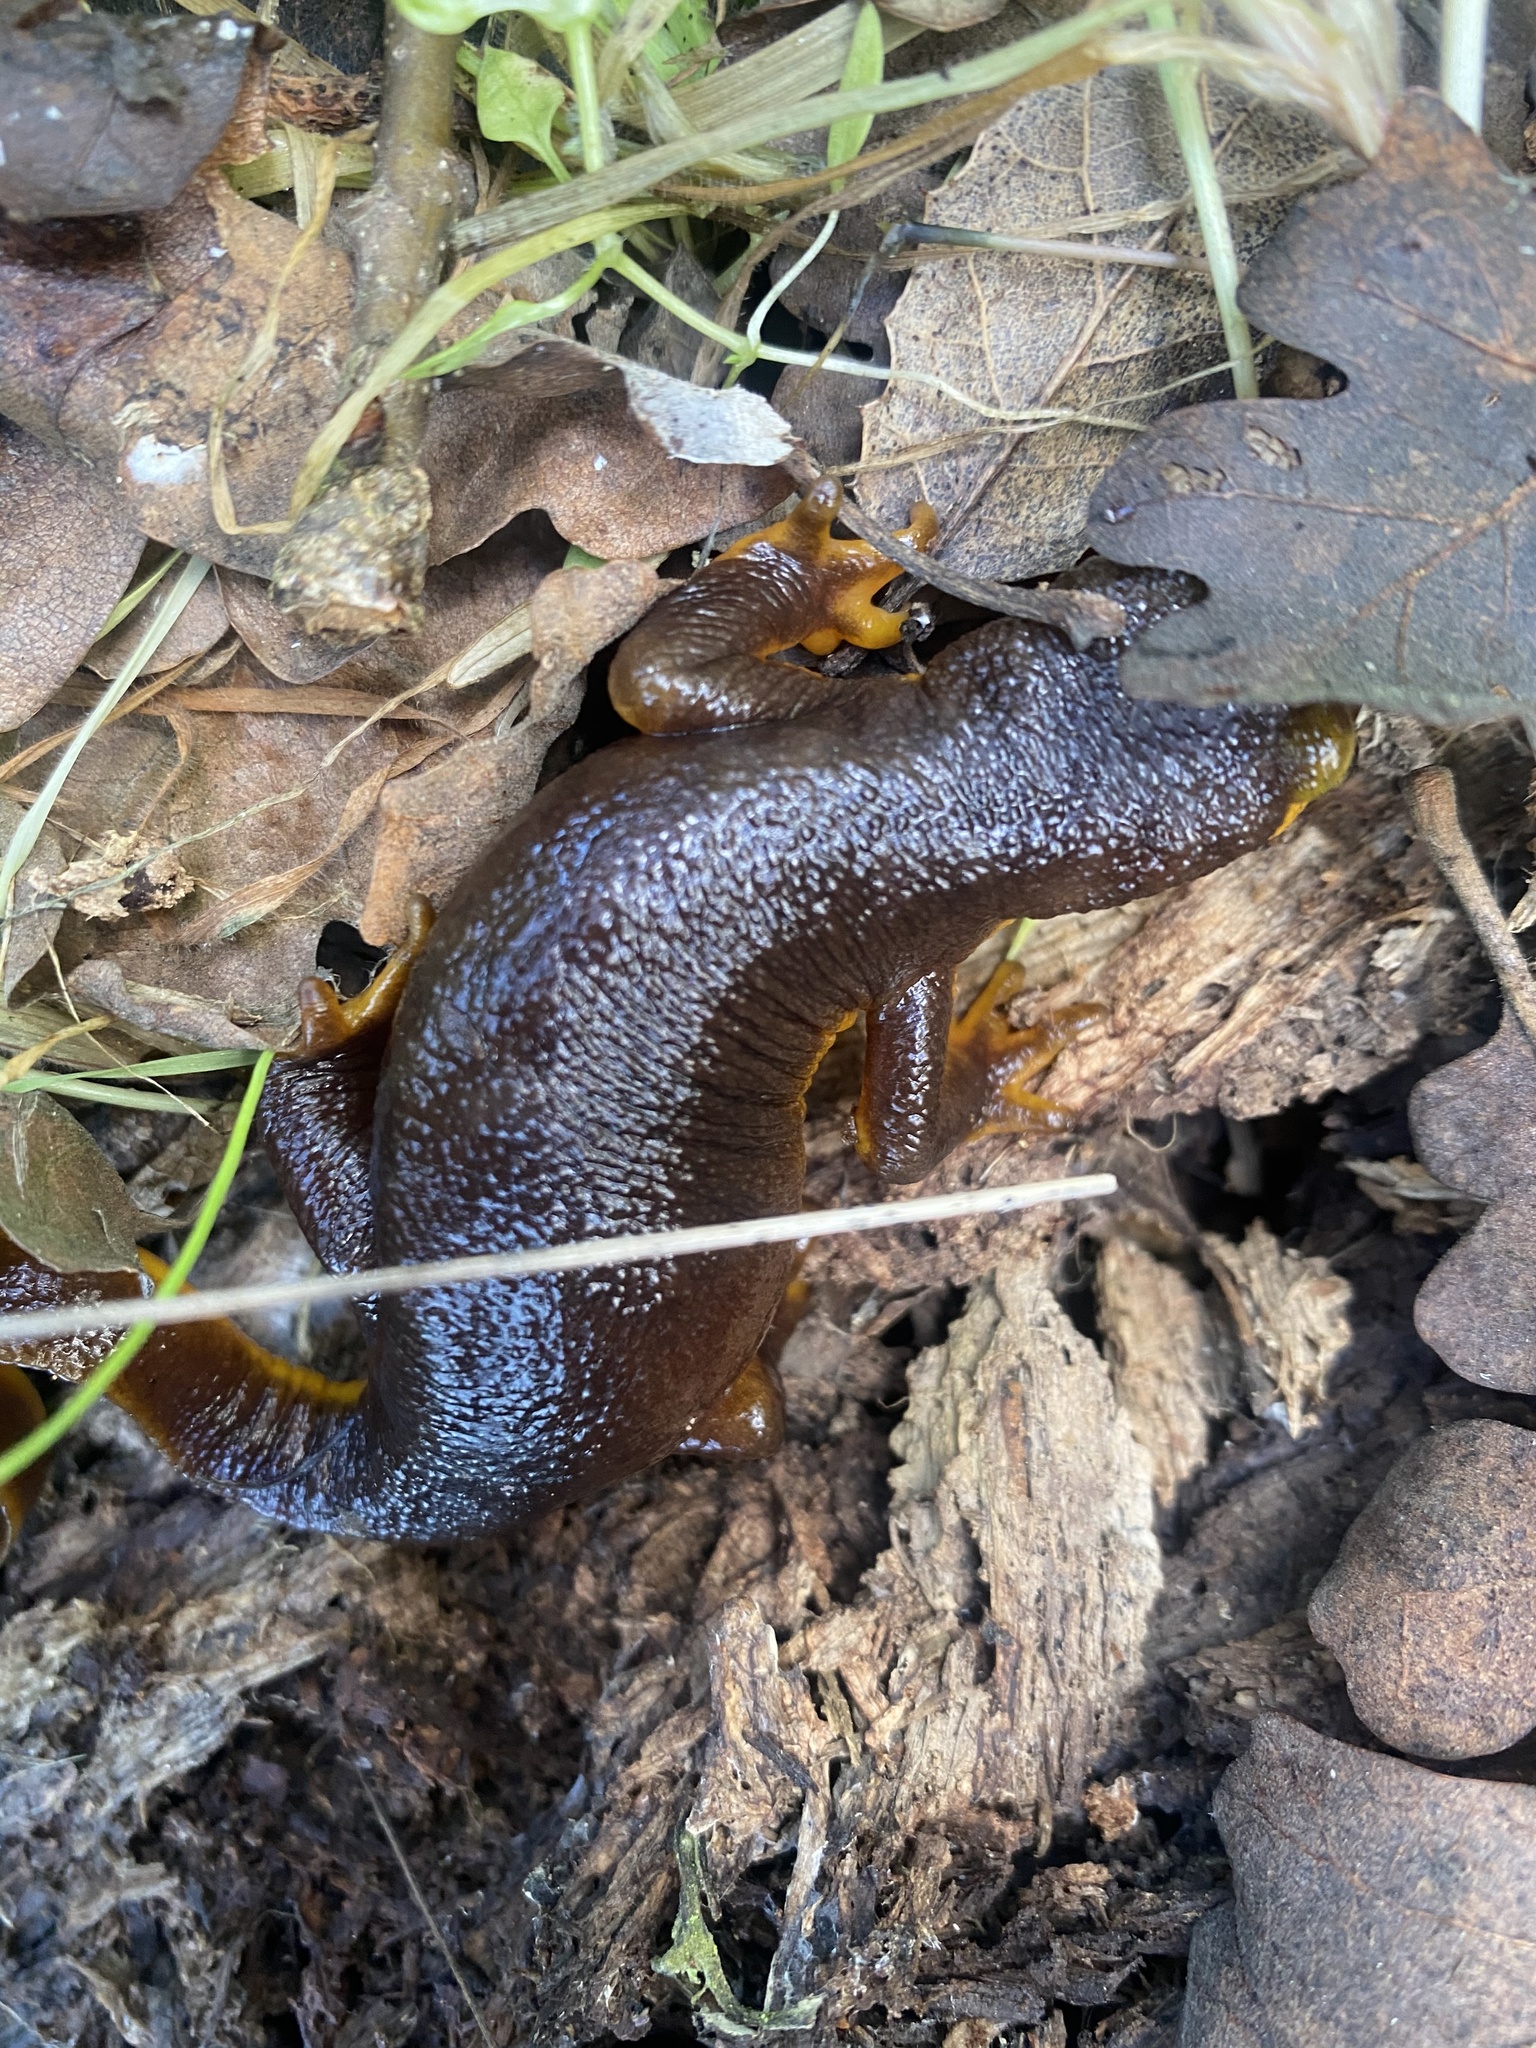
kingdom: Animalia
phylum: Chordata
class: Amphibia
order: Caudata
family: Salamandridae
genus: Taricha
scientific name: Taricha torosa
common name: California newt
